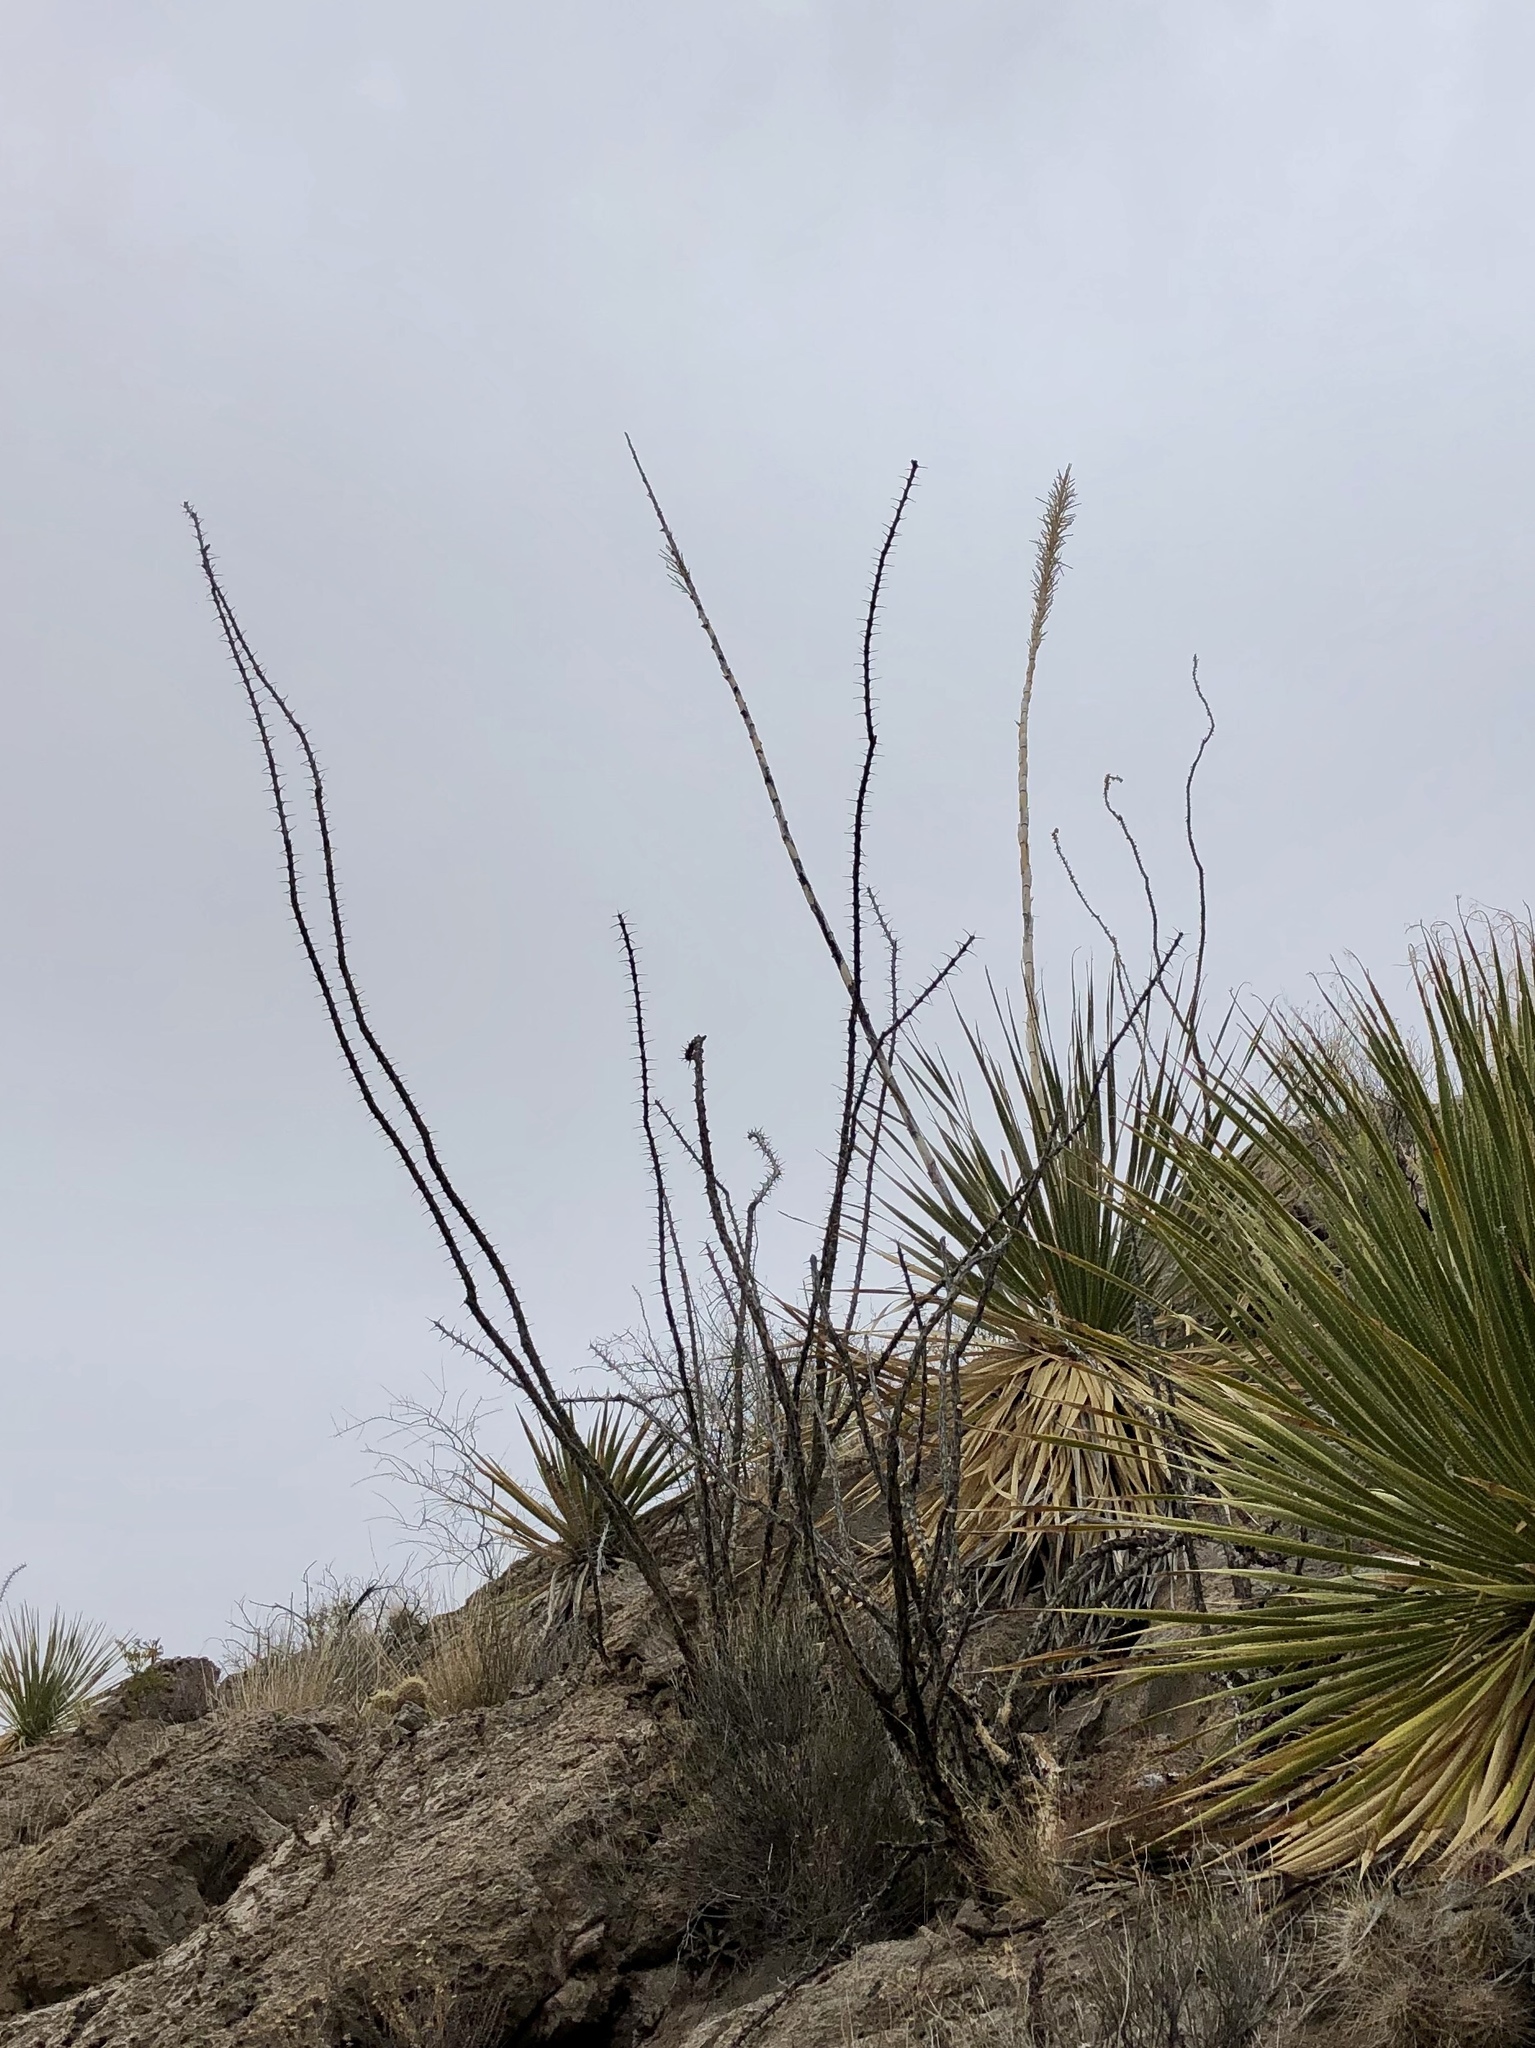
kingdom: Plantae
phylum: Tracheophyta
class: Magnoliopsida
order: Ericales
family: Fouquieriaceae
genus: Fouquieria
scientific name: Fouquieria splendens
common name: Vine-cactus
